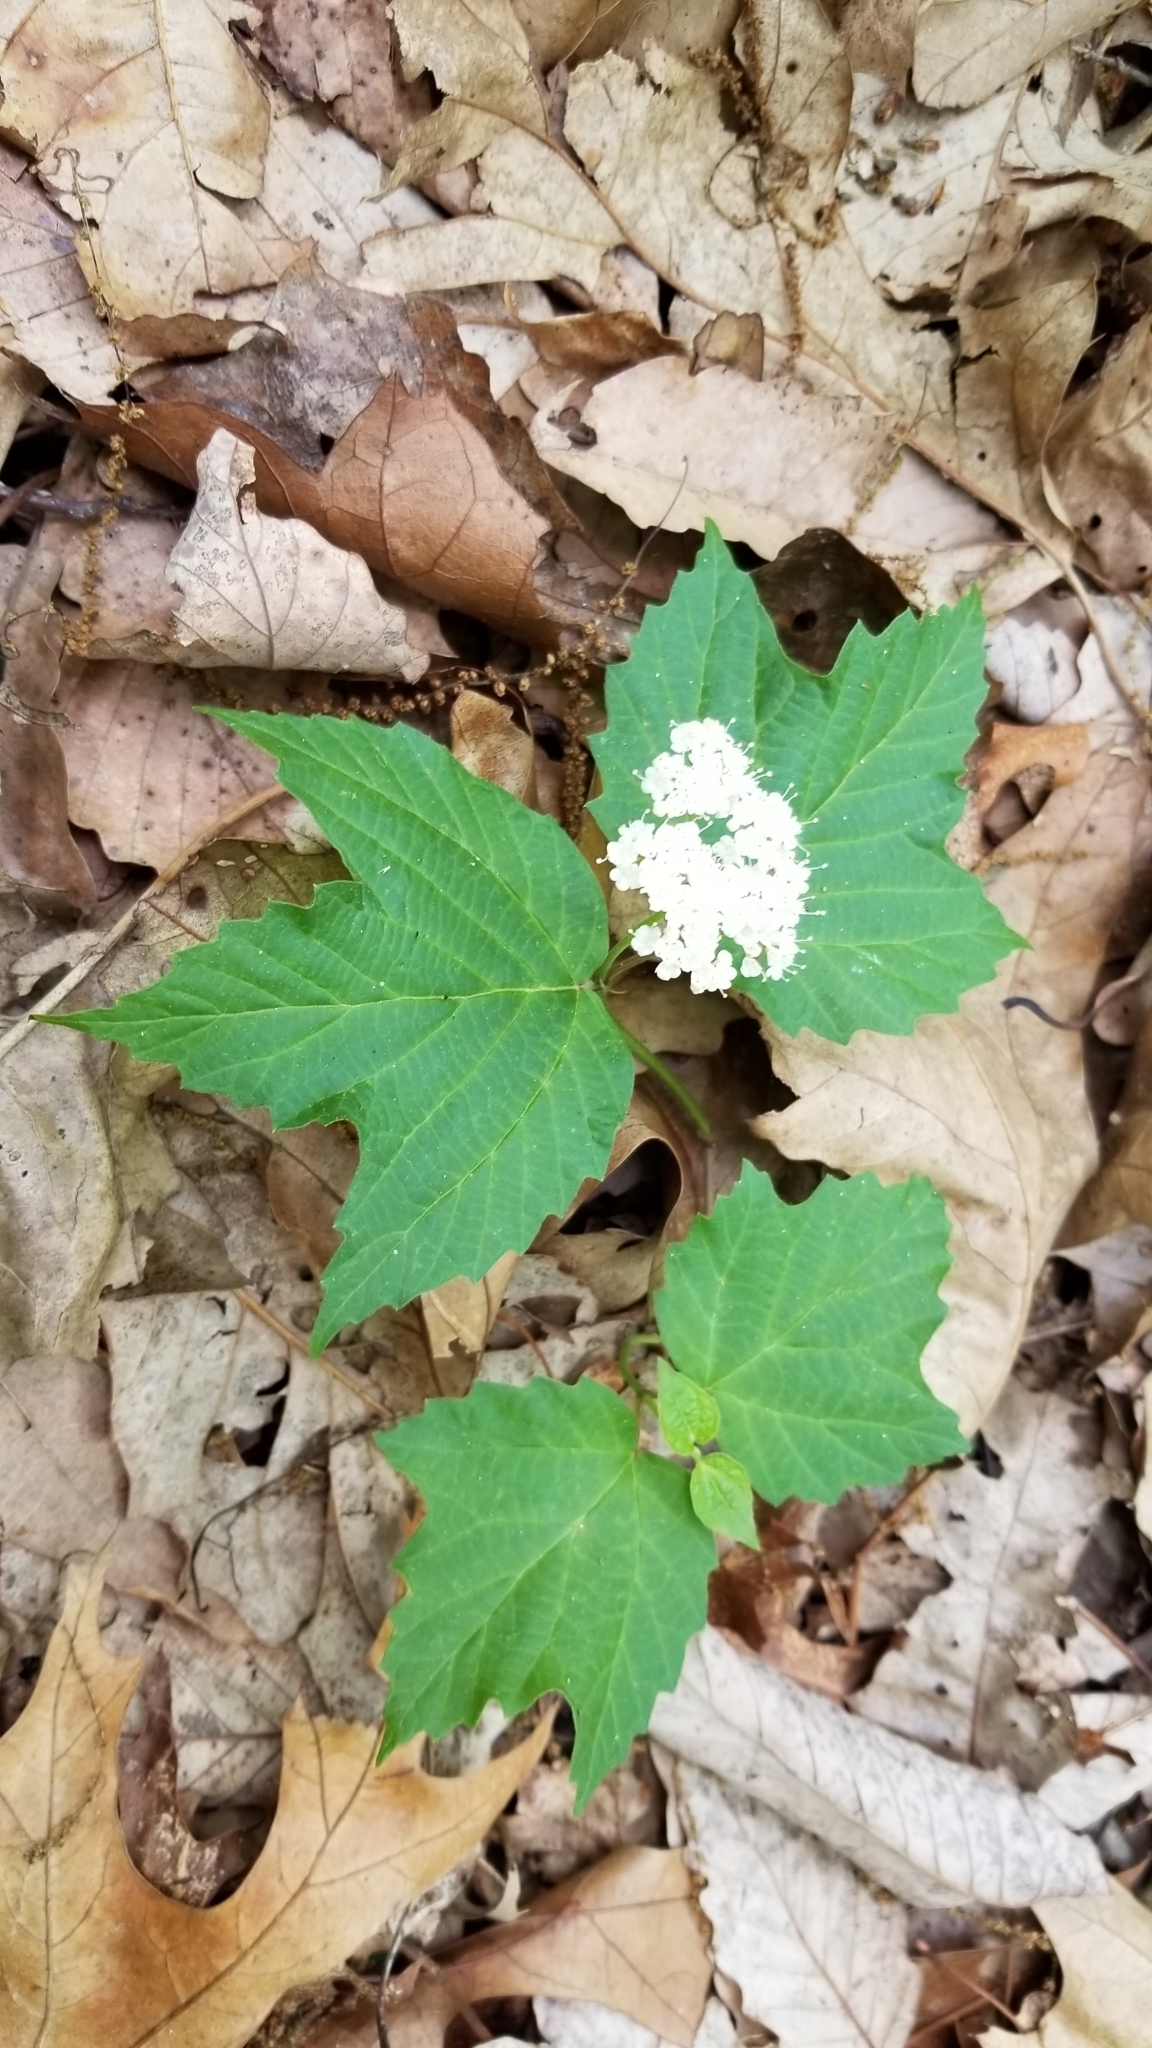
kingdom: Plantae
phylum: Tracheophyta
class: Magnoliopsida
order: Dipsacales
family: Viburnaceae
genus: Viburnum
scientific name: Viburnum acerifolium
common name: Dockmackie
